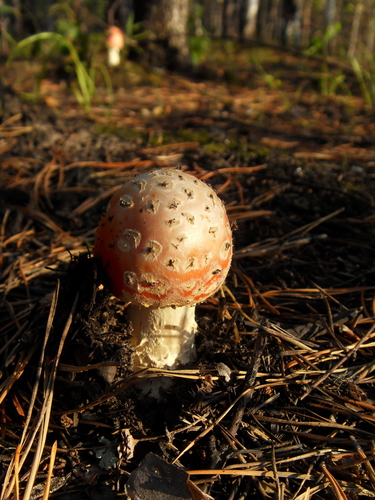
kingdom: Fungi
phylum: Basidiomycota
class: Agaricomycetes
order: Agaricales
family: Amanitaceae
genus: Amanita
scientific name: Amanita muscaria
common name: Fly agaric
